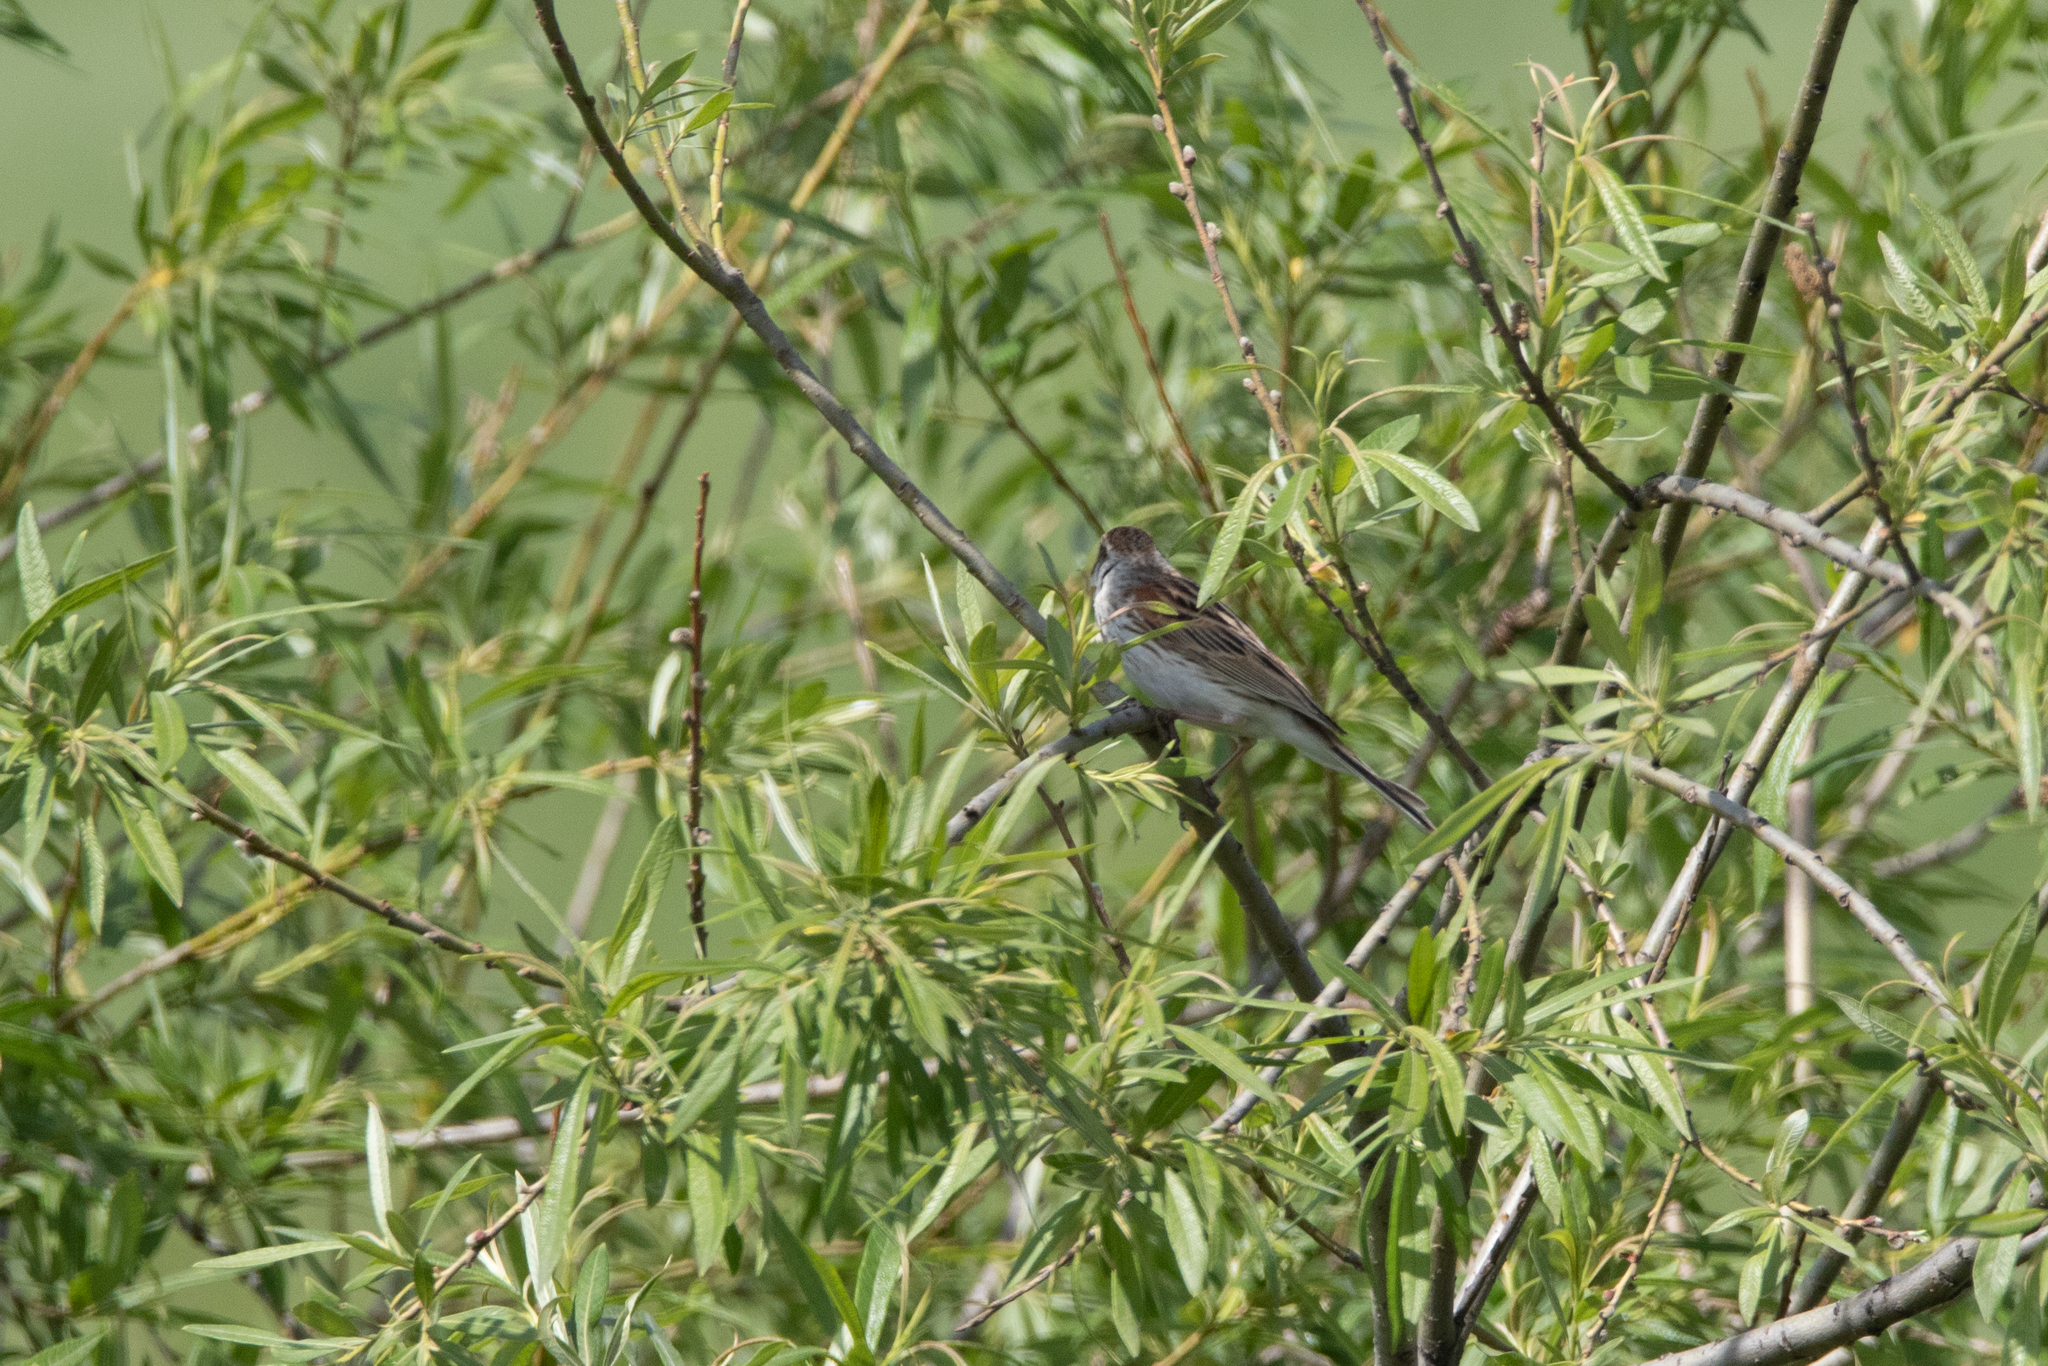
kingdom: Animalia
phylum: Chordata
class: Aves
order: Passeriformes
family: Emberizidae
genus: Emberiza
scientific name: Emberiza schoeniclus
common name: Reed bunting
